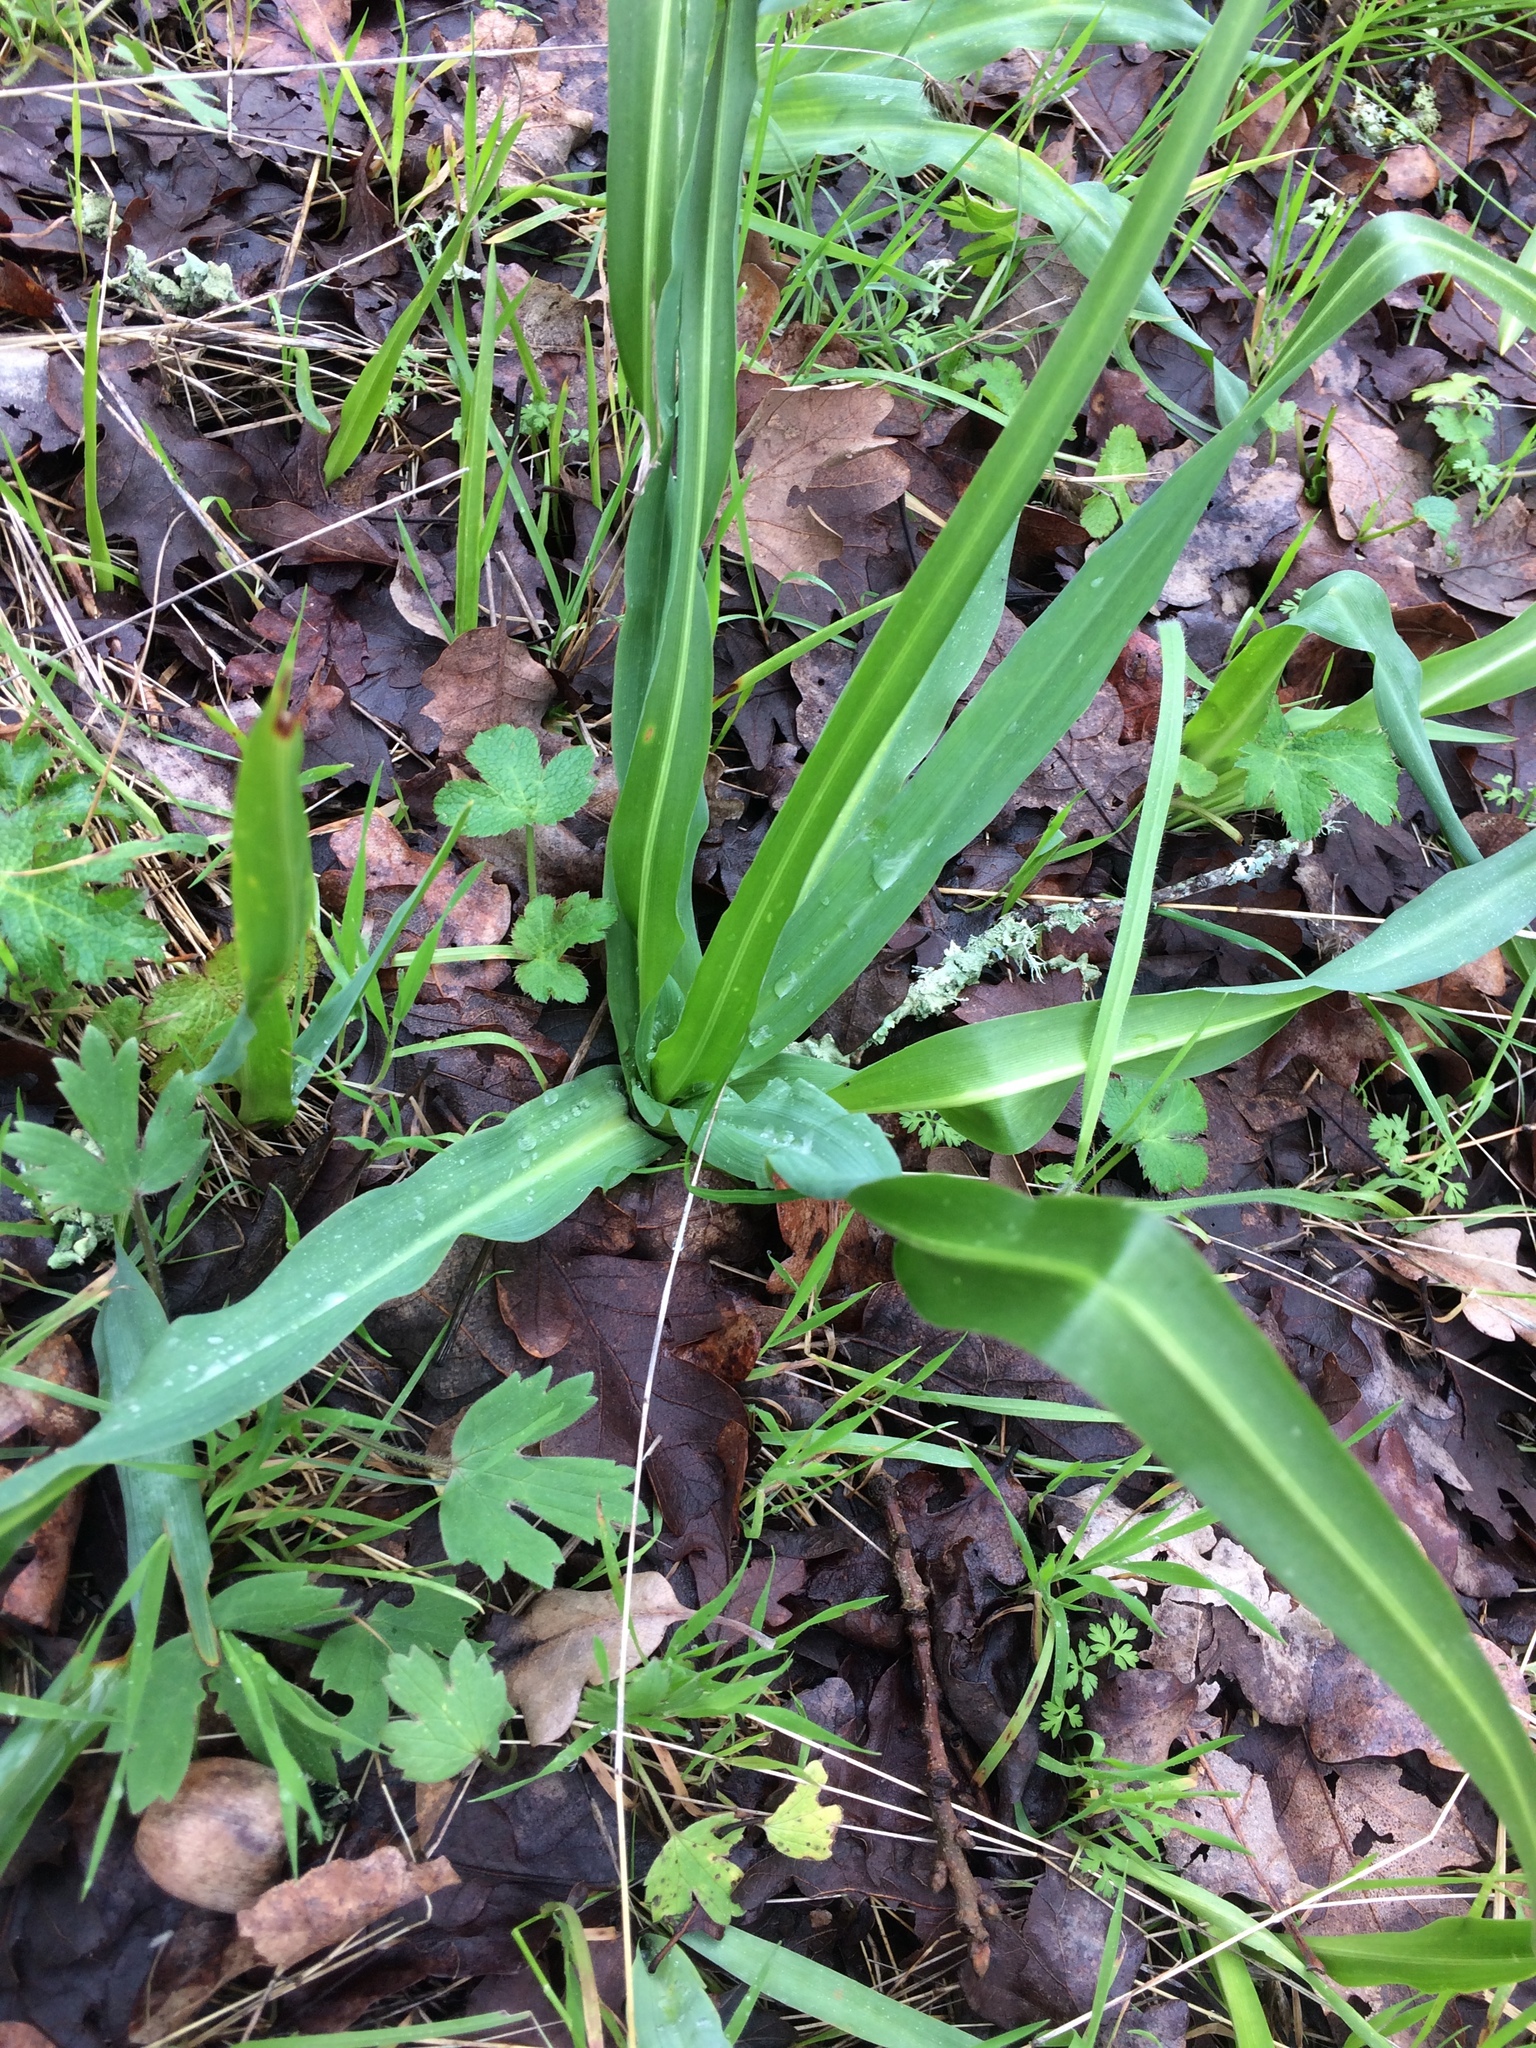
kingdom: Plantae
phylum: Tracheophyta
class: Liliopsida
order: Asparagales
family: Asparagaceae
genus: Chlorogalum
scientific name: Chlorogalum pomeridianum
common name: Amole
